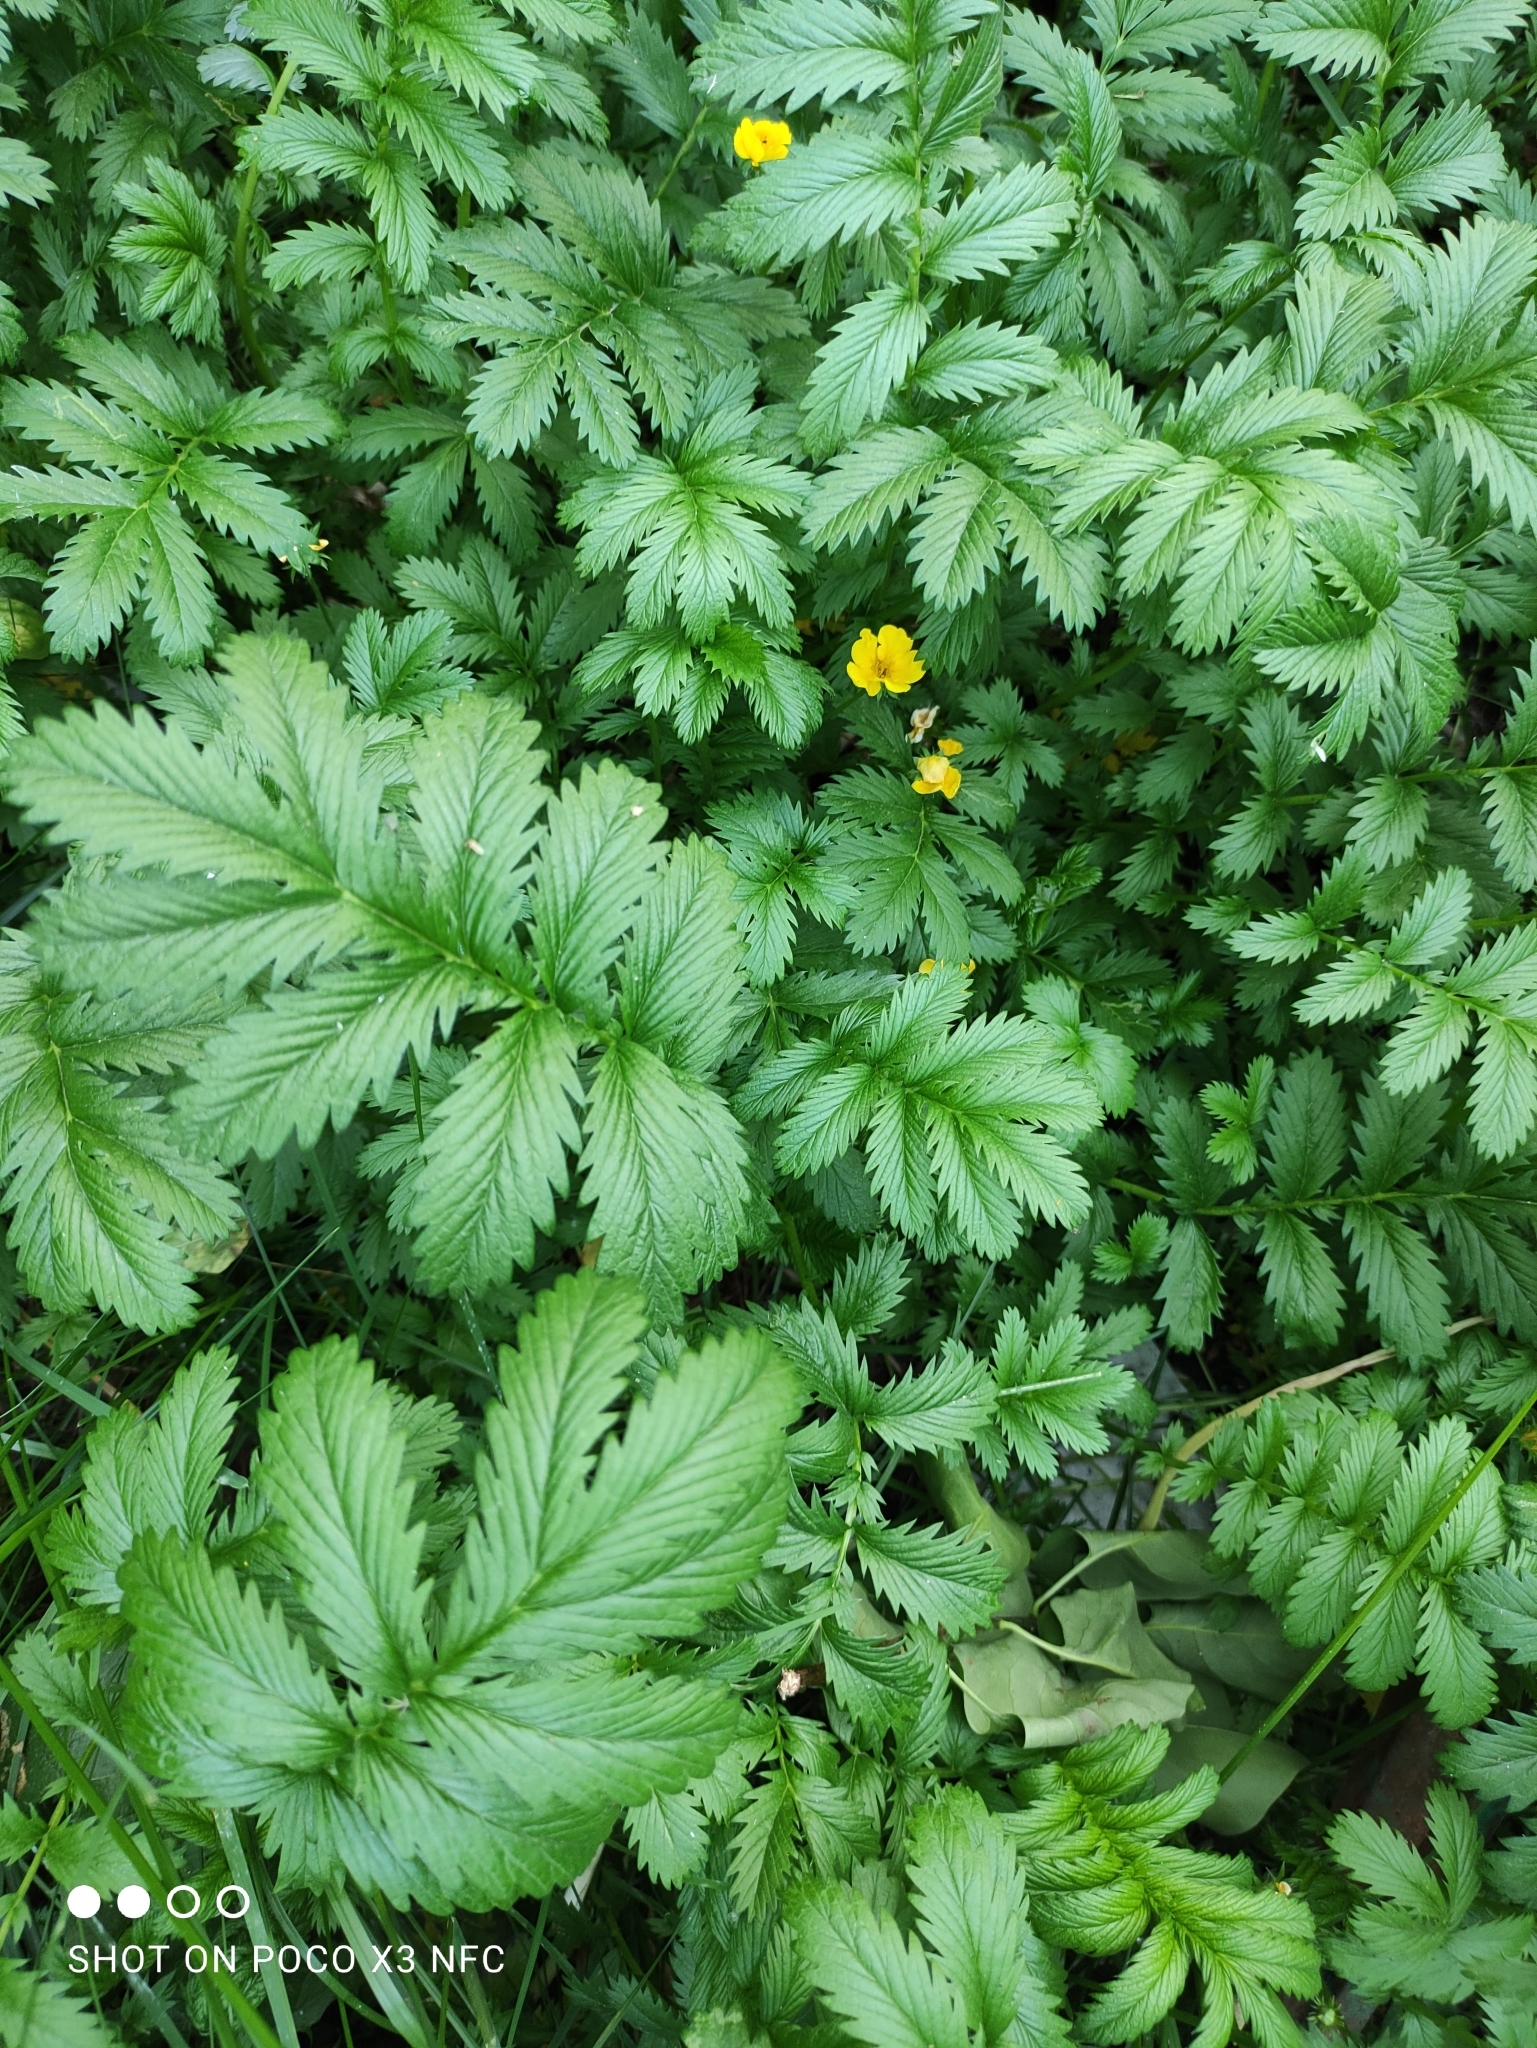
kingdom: Plantae
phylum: Tracheophyta
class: Magnoliopsida
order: Rosales
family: Rosaceae
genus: Argentina
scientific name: Argentina anserina
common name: Common silverweed
